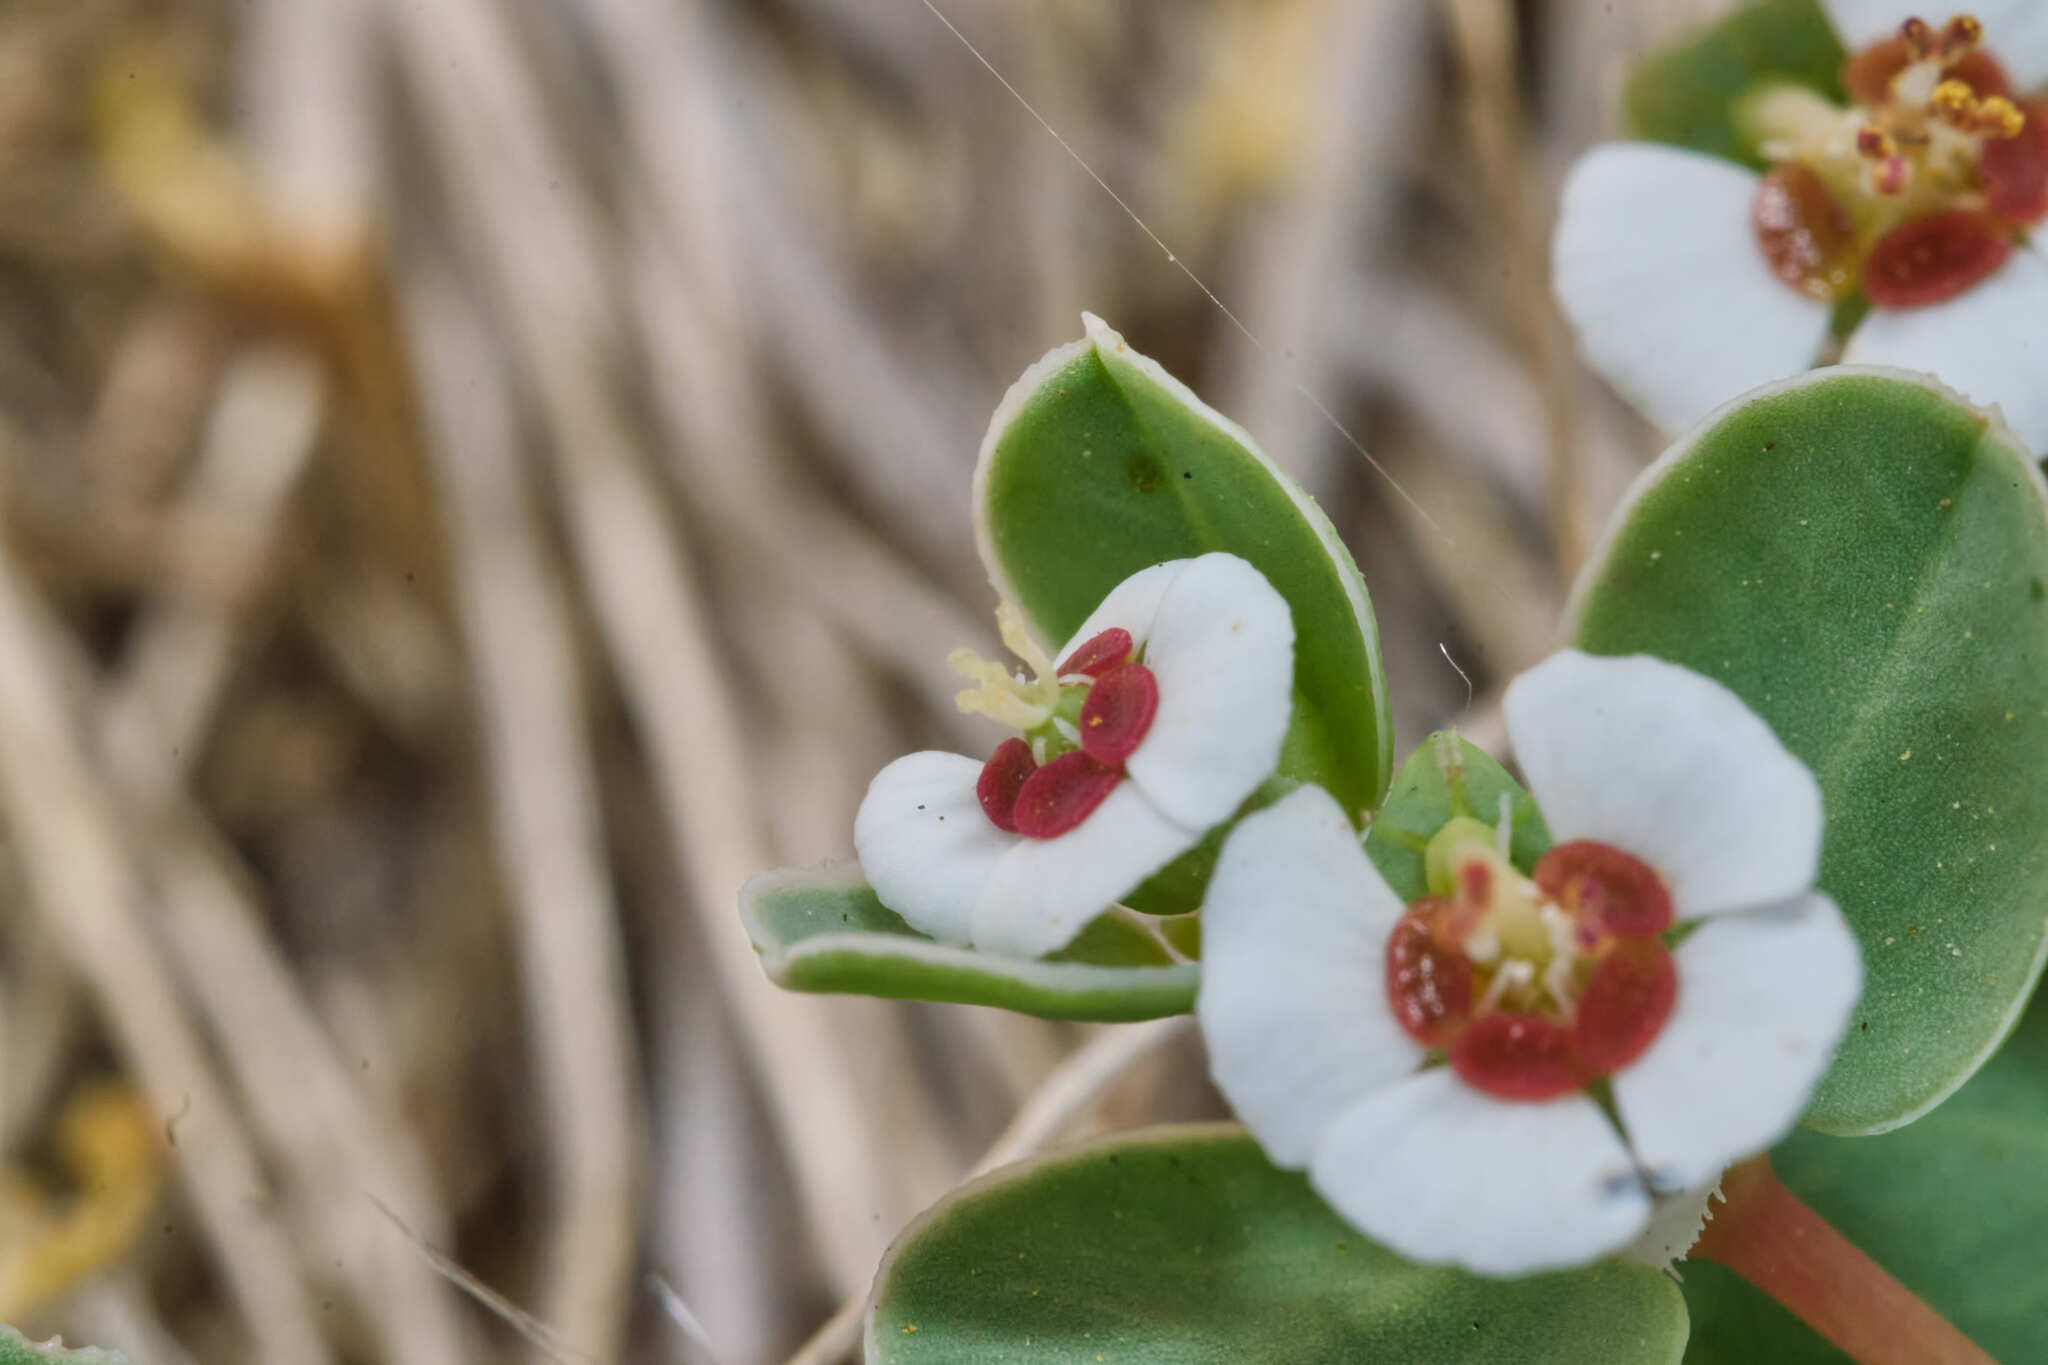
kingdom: Plantae
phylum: Tracheophyta
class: Magnoliopsida
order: Malpighiales
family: Euphorbiaceae
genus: Euphorbia
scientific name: Euphorbia albomarginata
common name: Whitemargin sandmat
